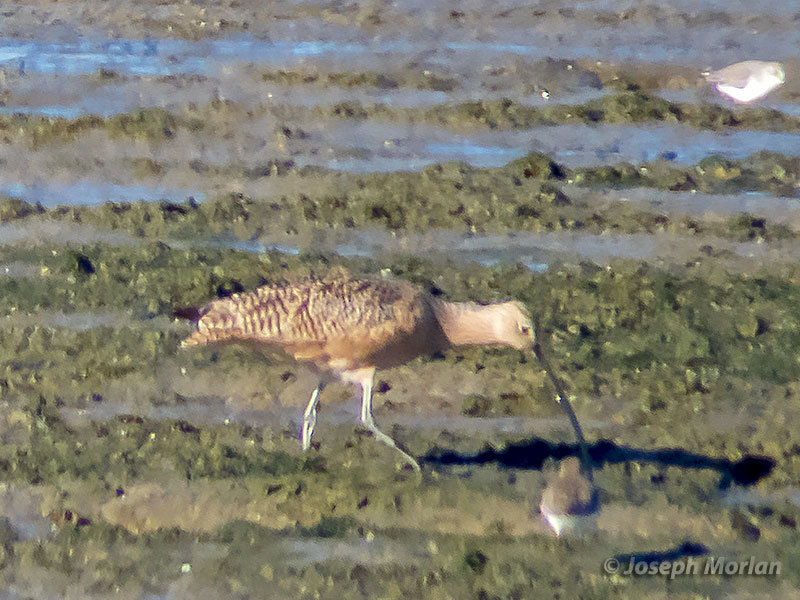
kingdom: Animalia
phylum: Chordata
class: Aves
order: Charadriiformes
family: Scolopacidae
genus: Numenius
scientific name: Numenius americanus
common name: Long-billed curlew
